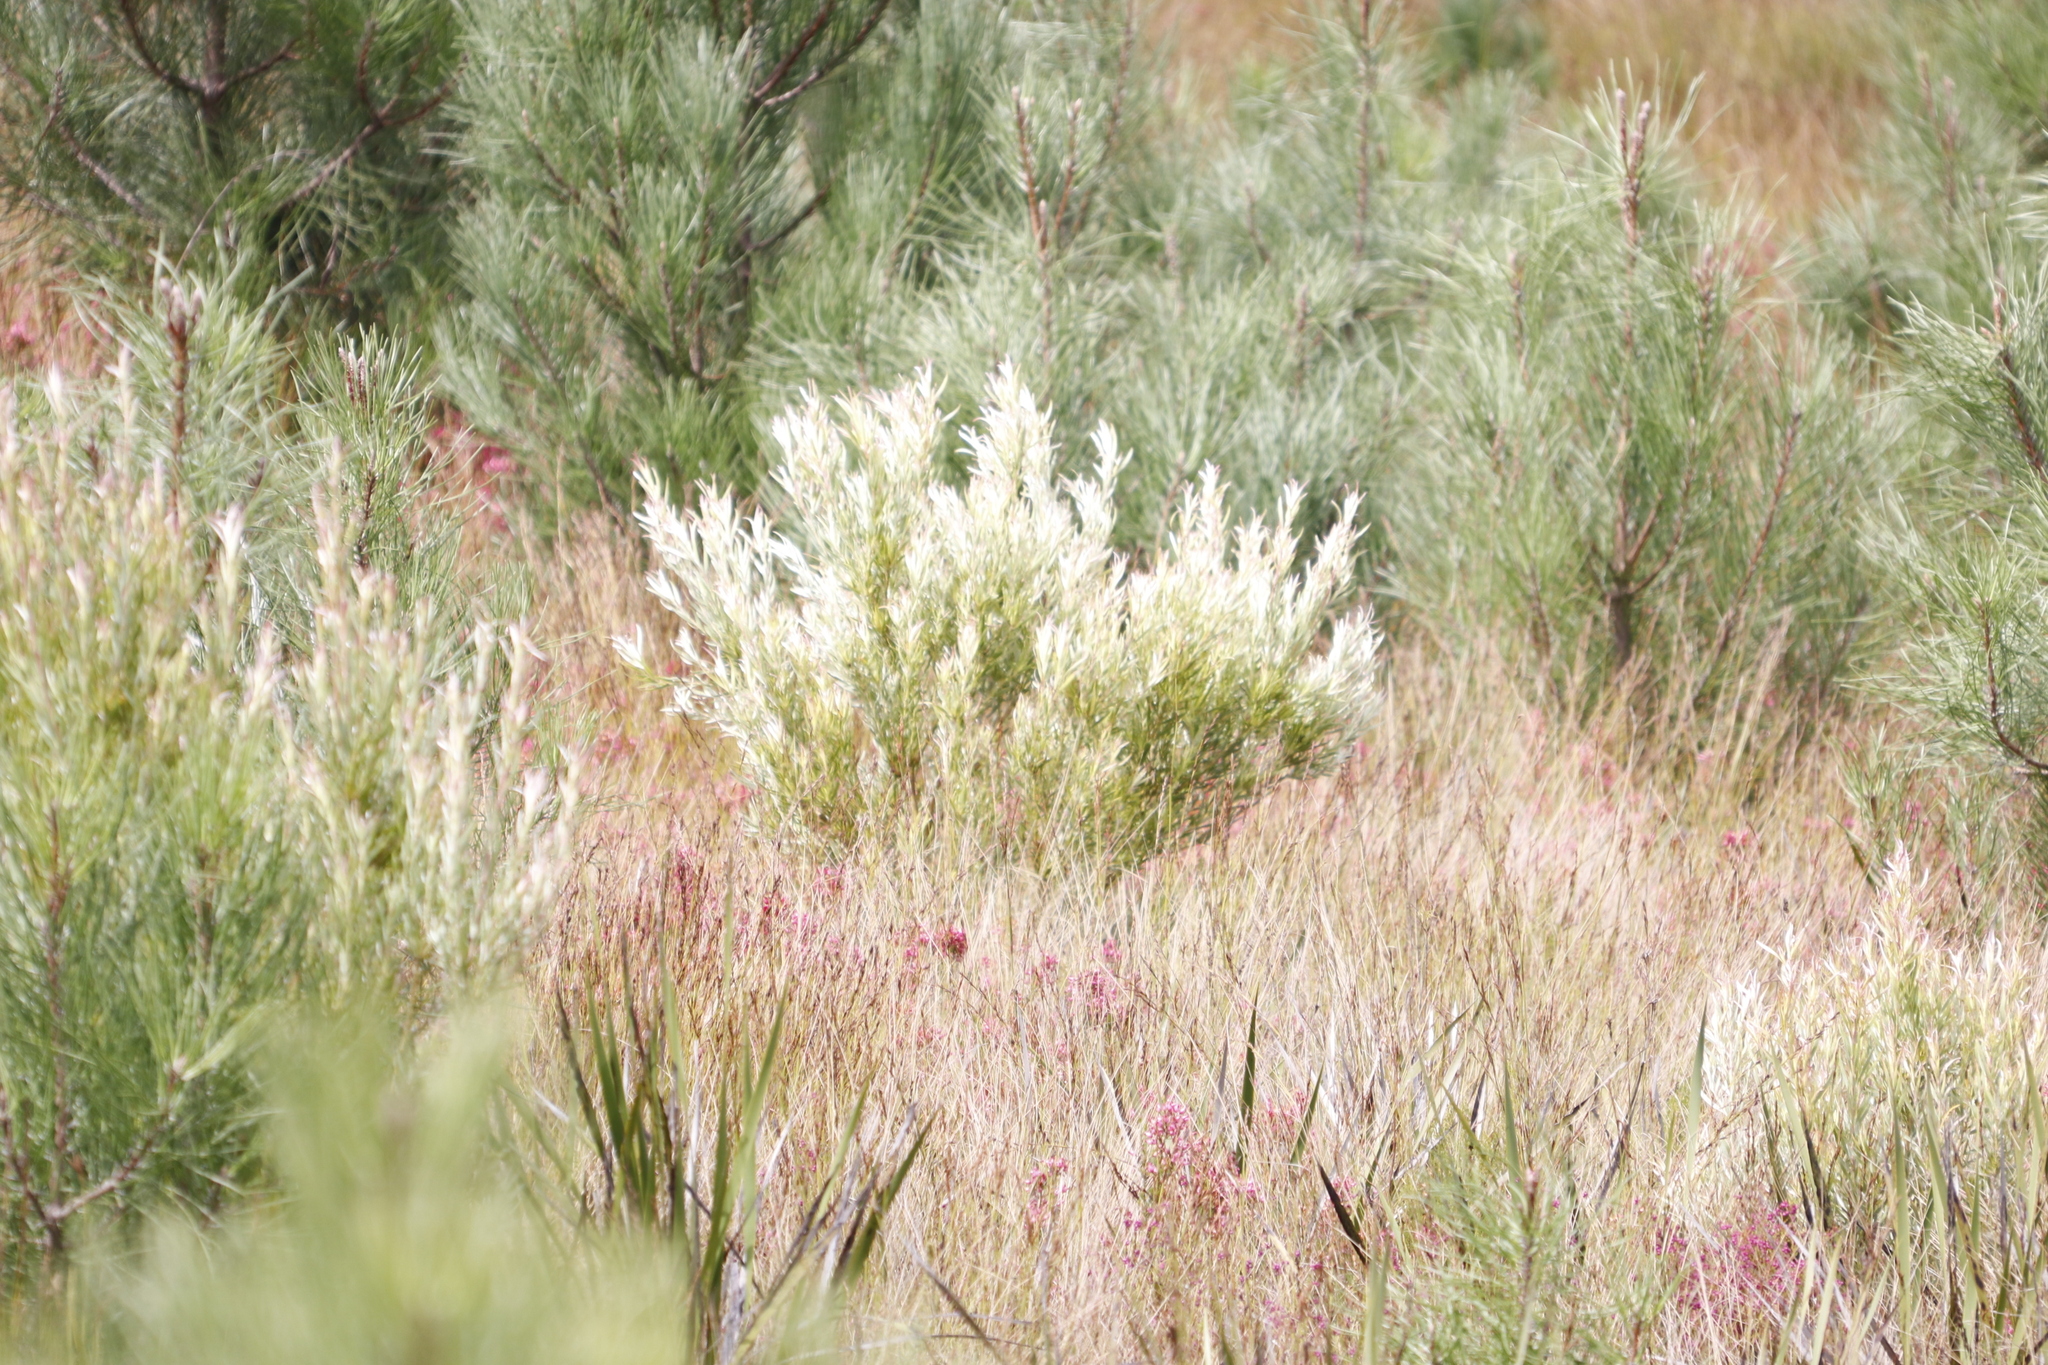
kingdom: Plantae
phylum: Tracheophyta
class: Magnoliopsida
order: Proteales
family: Proteaceae
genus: Leucadendron
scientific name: Leucadendron xanthoconus
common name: Sickle-leaf conebush
